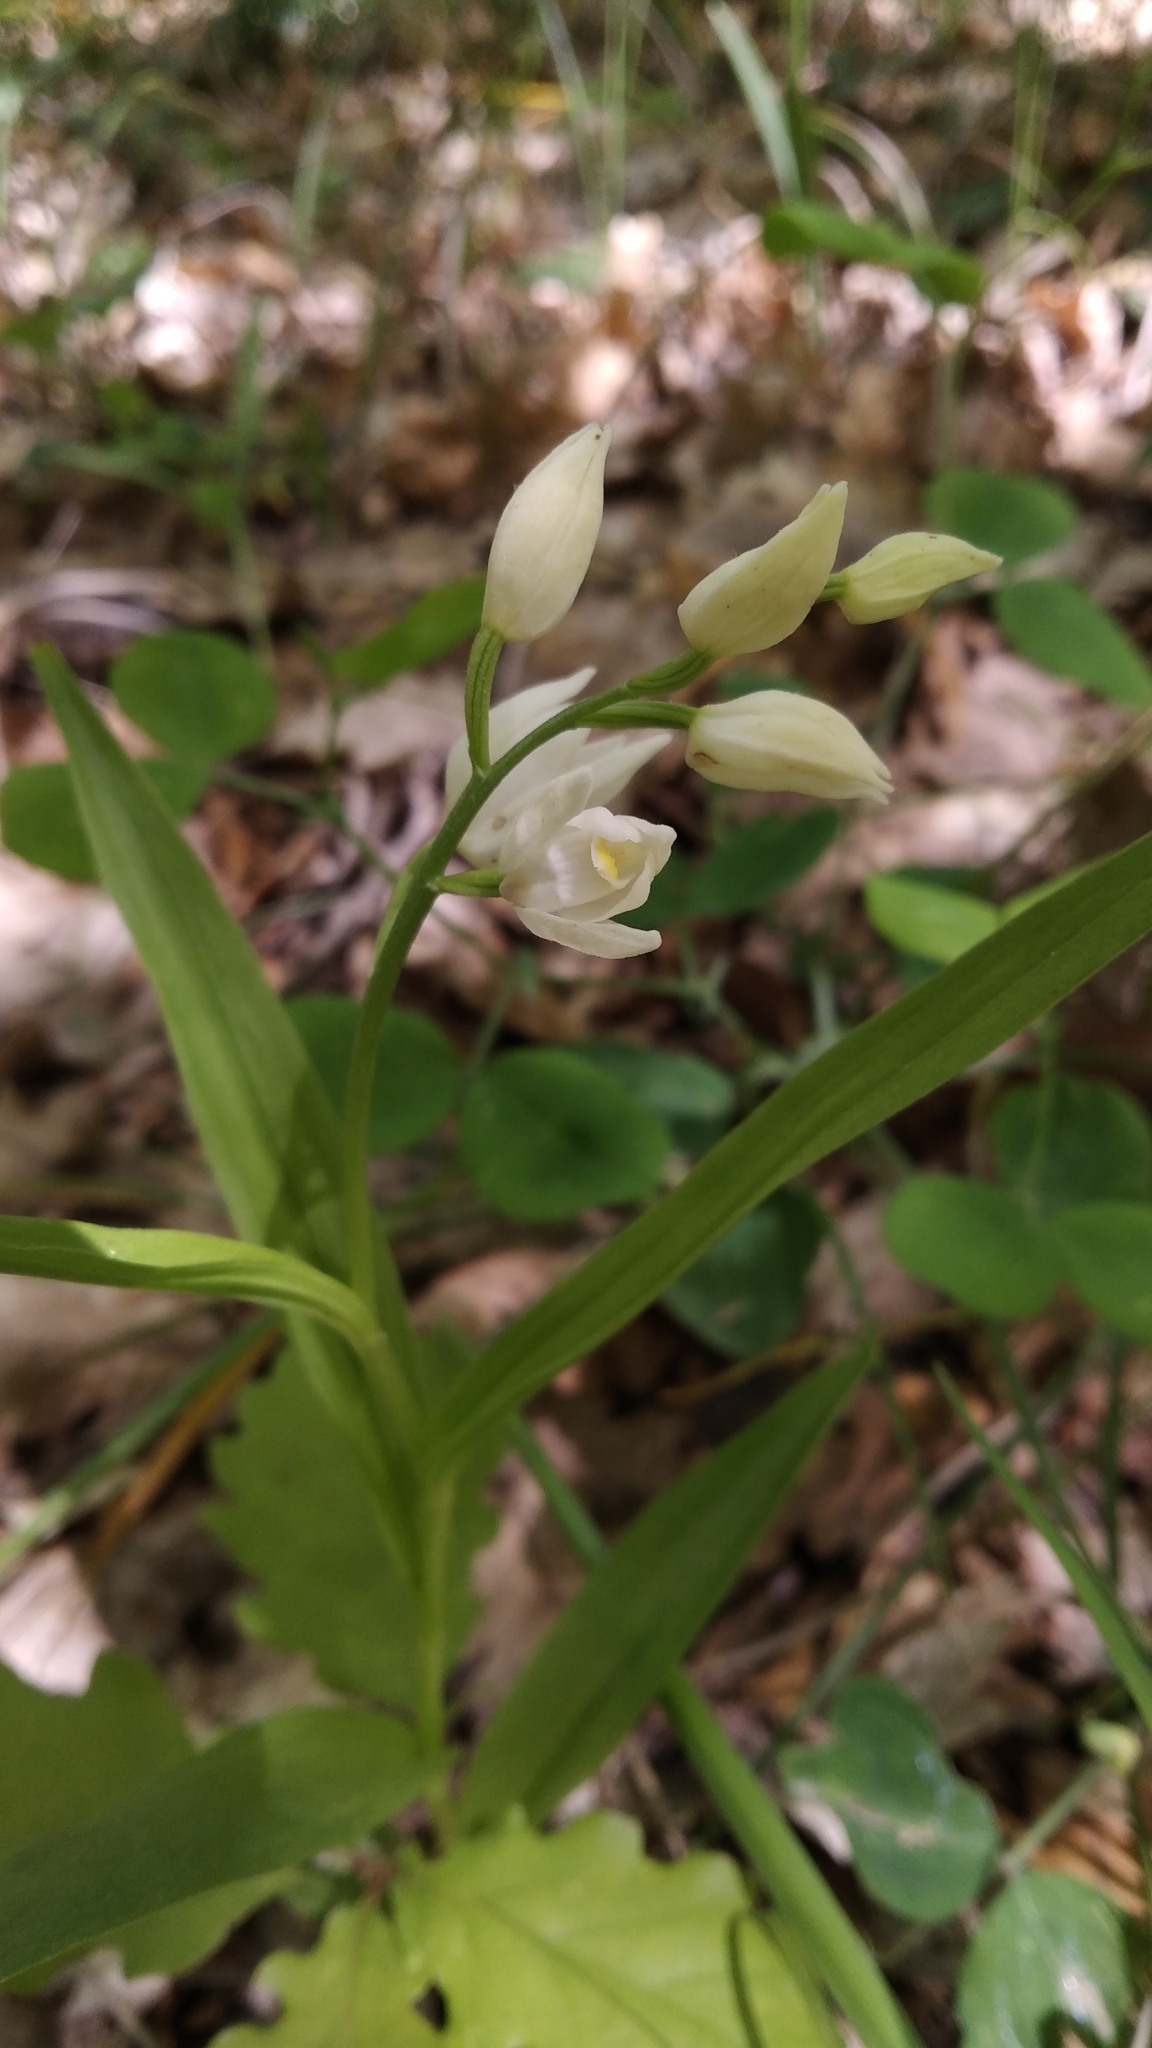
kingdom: Plantae
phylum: Tracheophyta
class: Liliopsida
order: Asparagales
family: Orchidaceae
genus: Cephalanthera
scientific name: Cephalanthera longifolia
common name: Narrow-leaved helleborine
